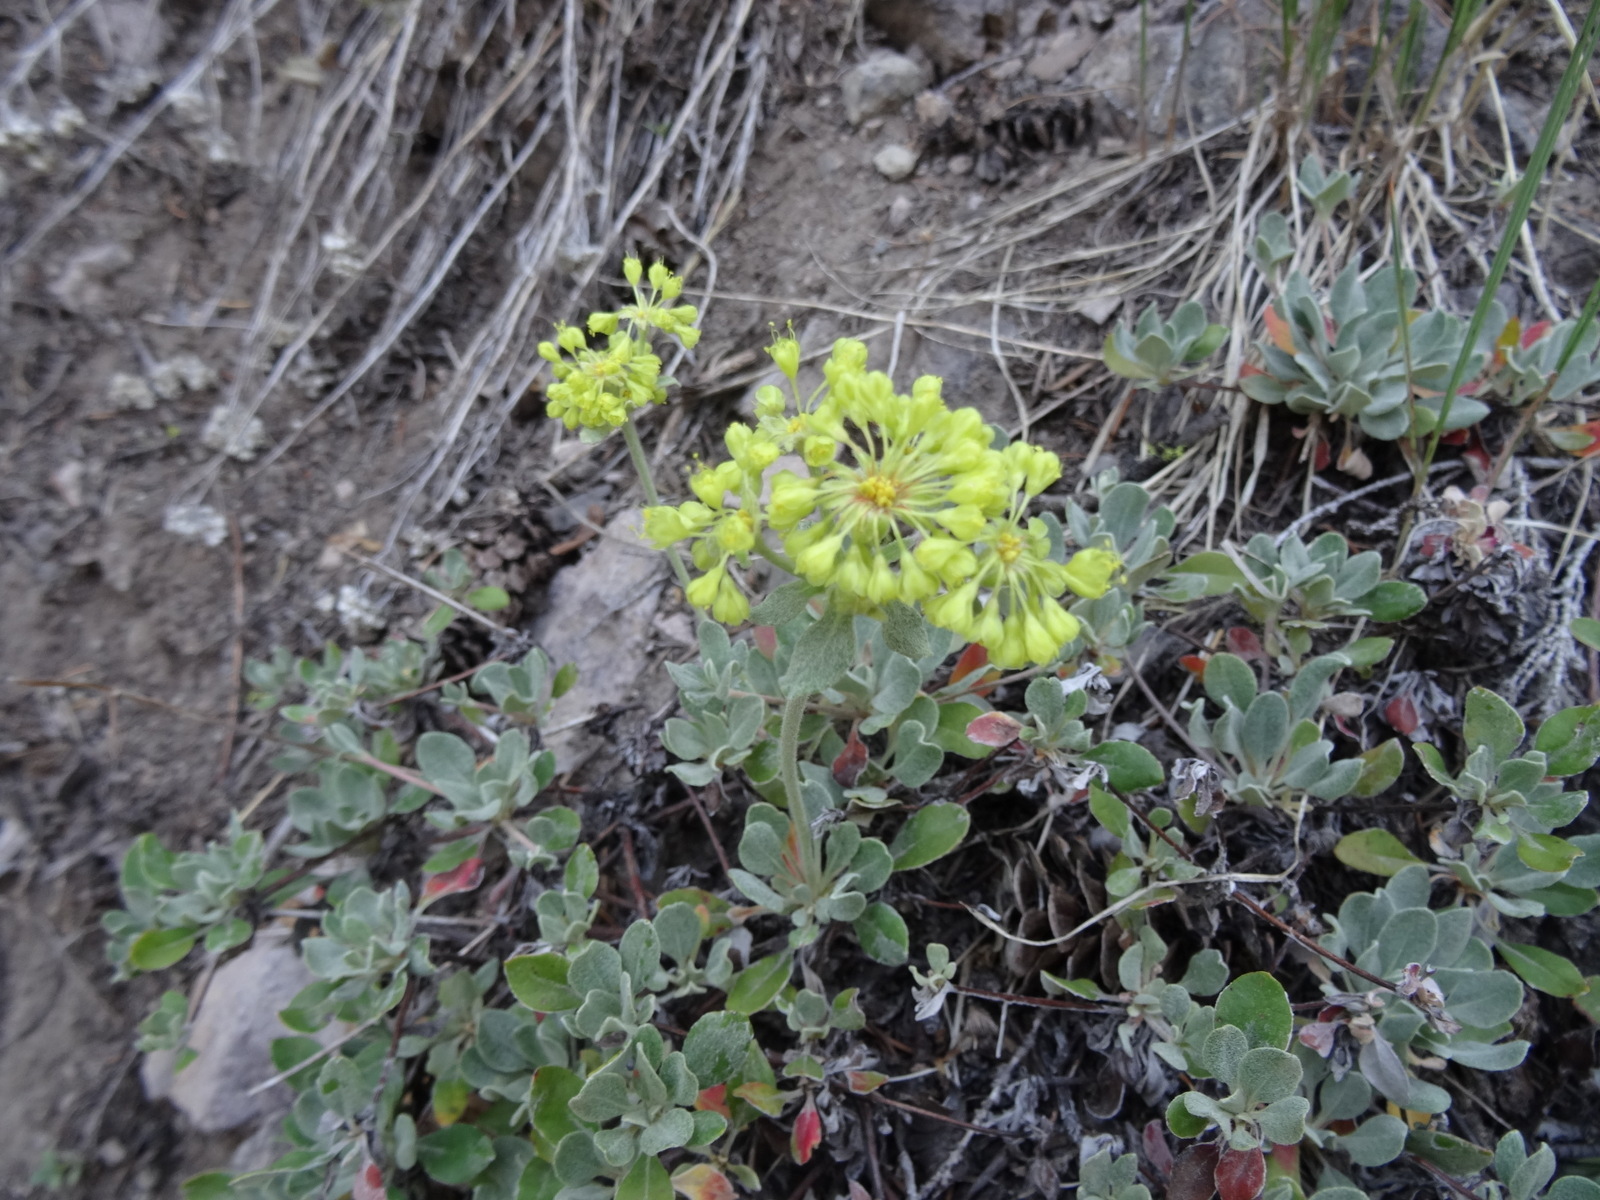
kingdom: Plantae
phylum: Tracheophyta
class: Magnoliopsida
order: Caryophyllales
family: Polygonaceae
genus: Eriogonum
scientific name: Eriogonum umbellatum
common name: Sulfur-buckwheat
